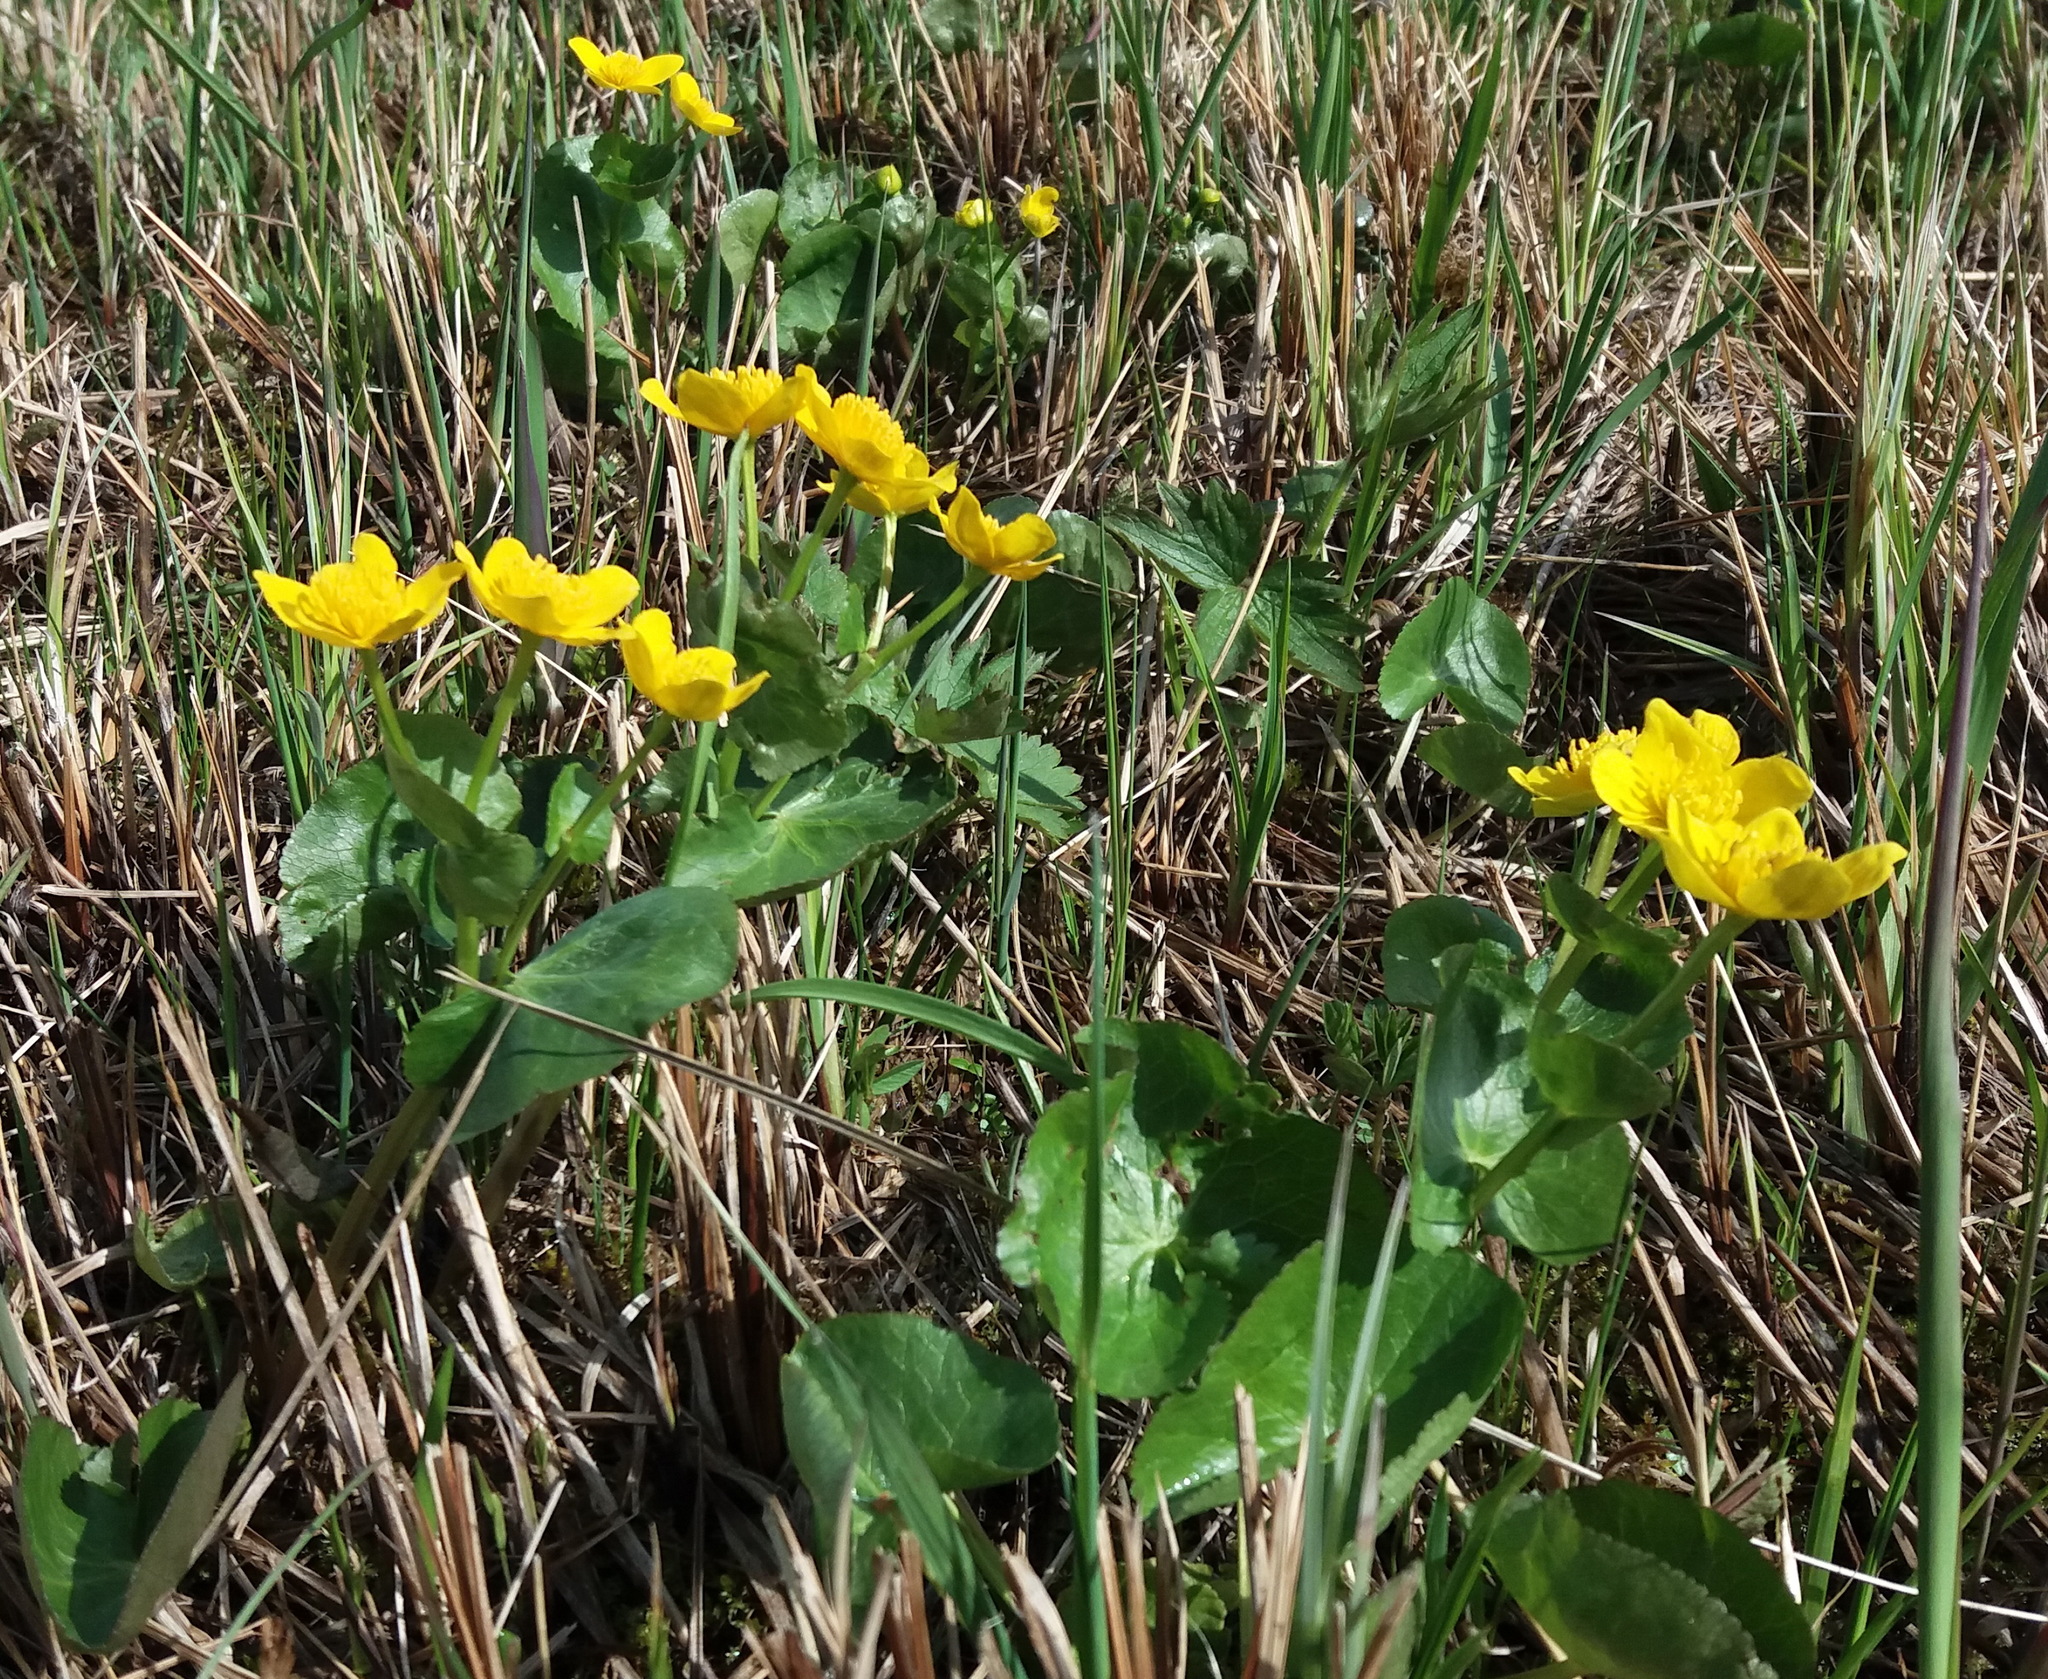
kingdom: Plantae
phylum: Tracheophyta
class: Magnoliopsida
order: Ranunculales
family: Ranunculaceae
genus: Caltha
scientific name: Caltha palustris
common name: Marsh marigold
